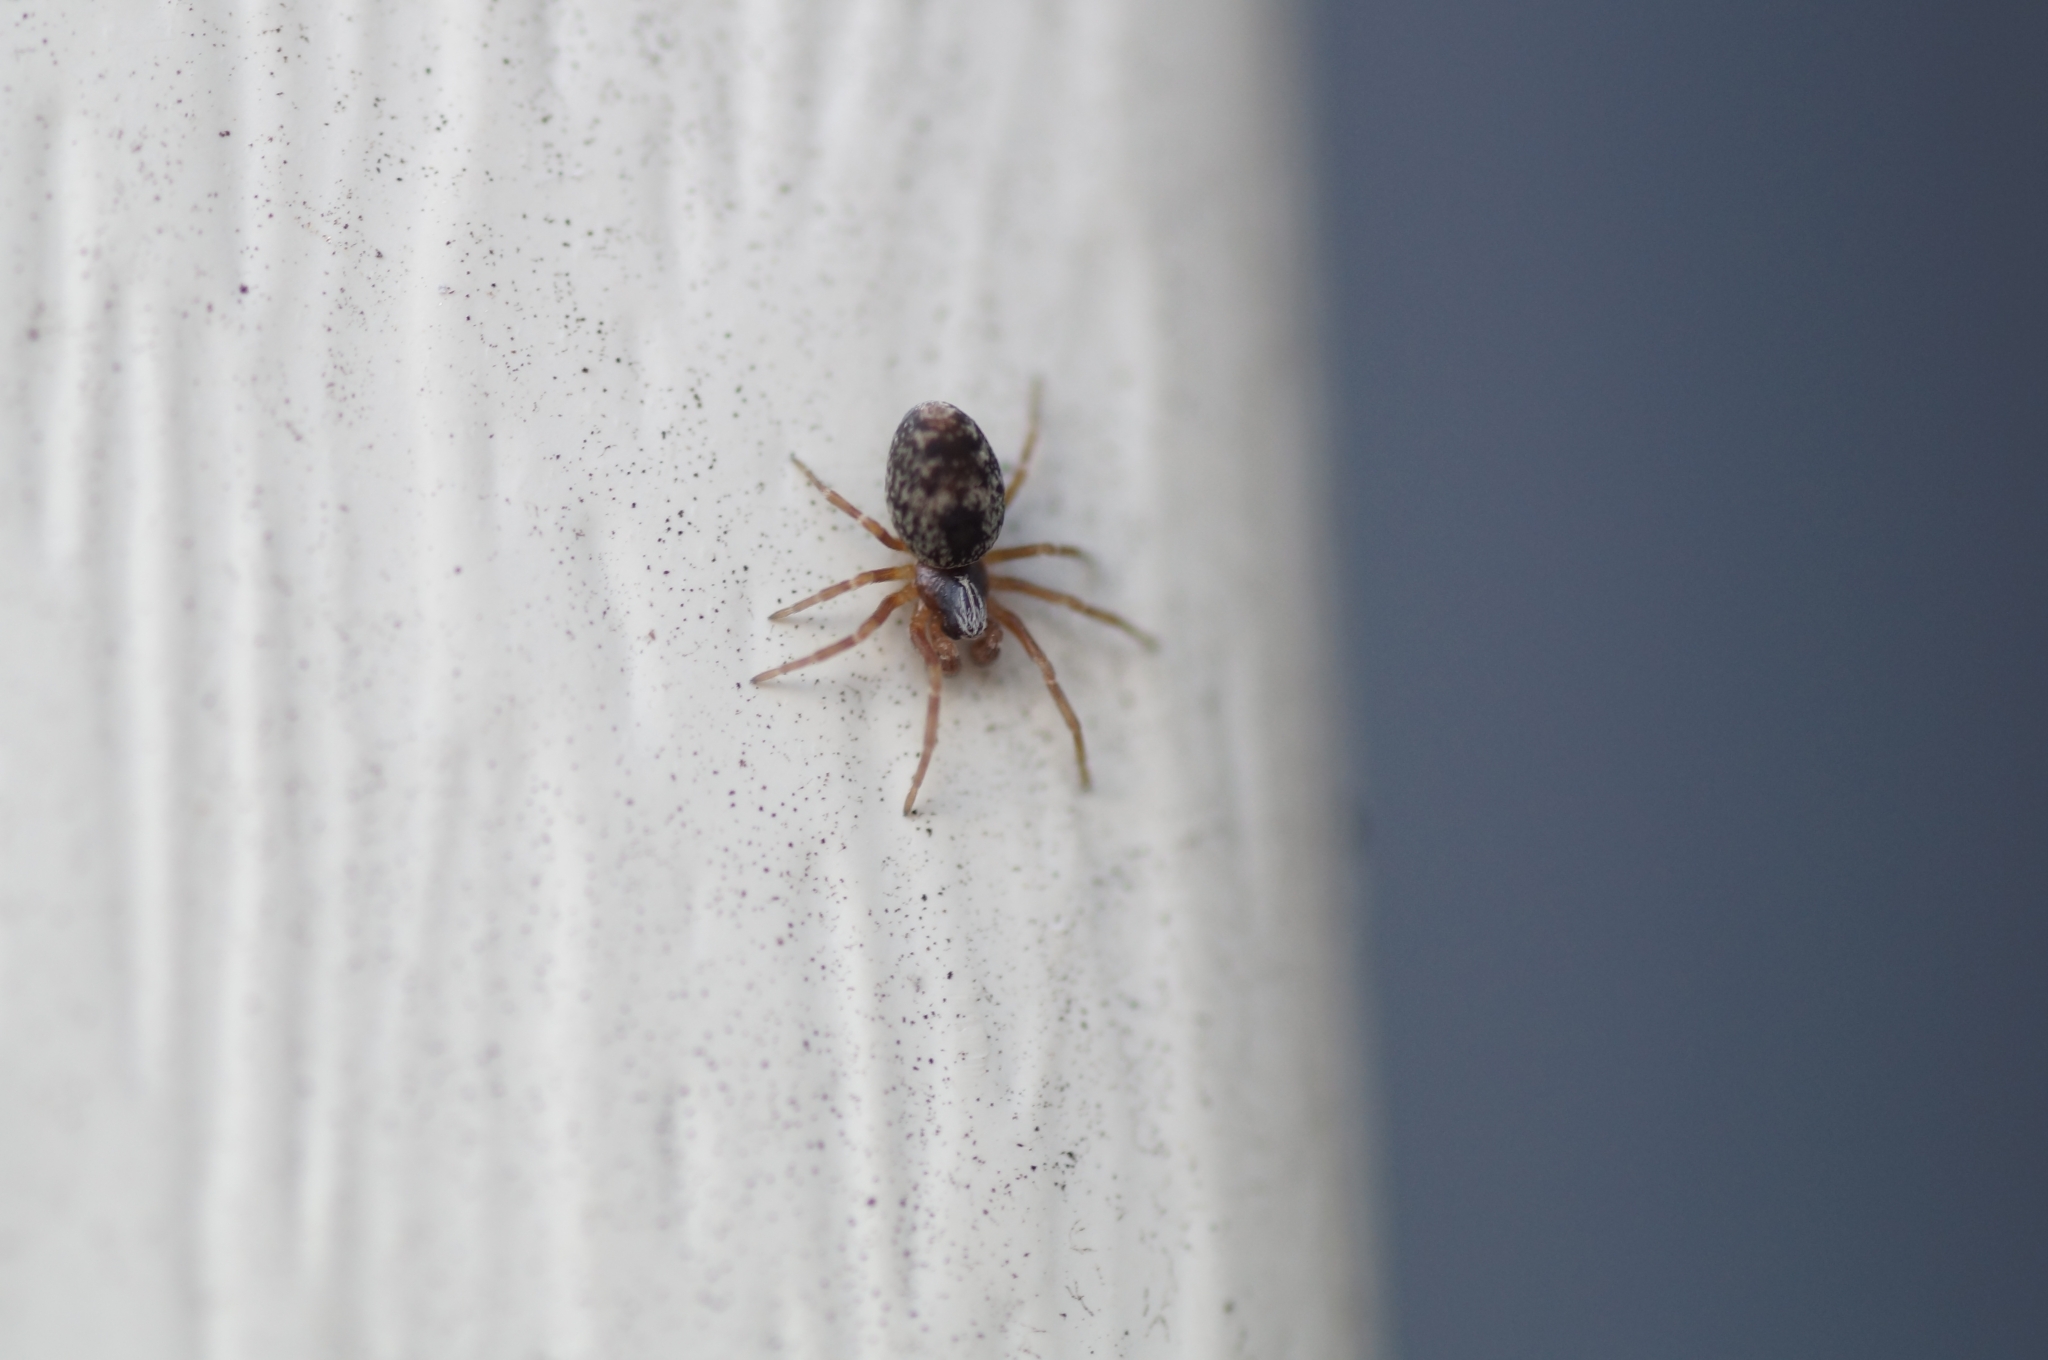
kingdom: Animalia
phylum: Arthropoda
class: Arachnida
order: Araneae
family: Dictynidae
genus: Brigittea
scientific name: Brigittea civica
